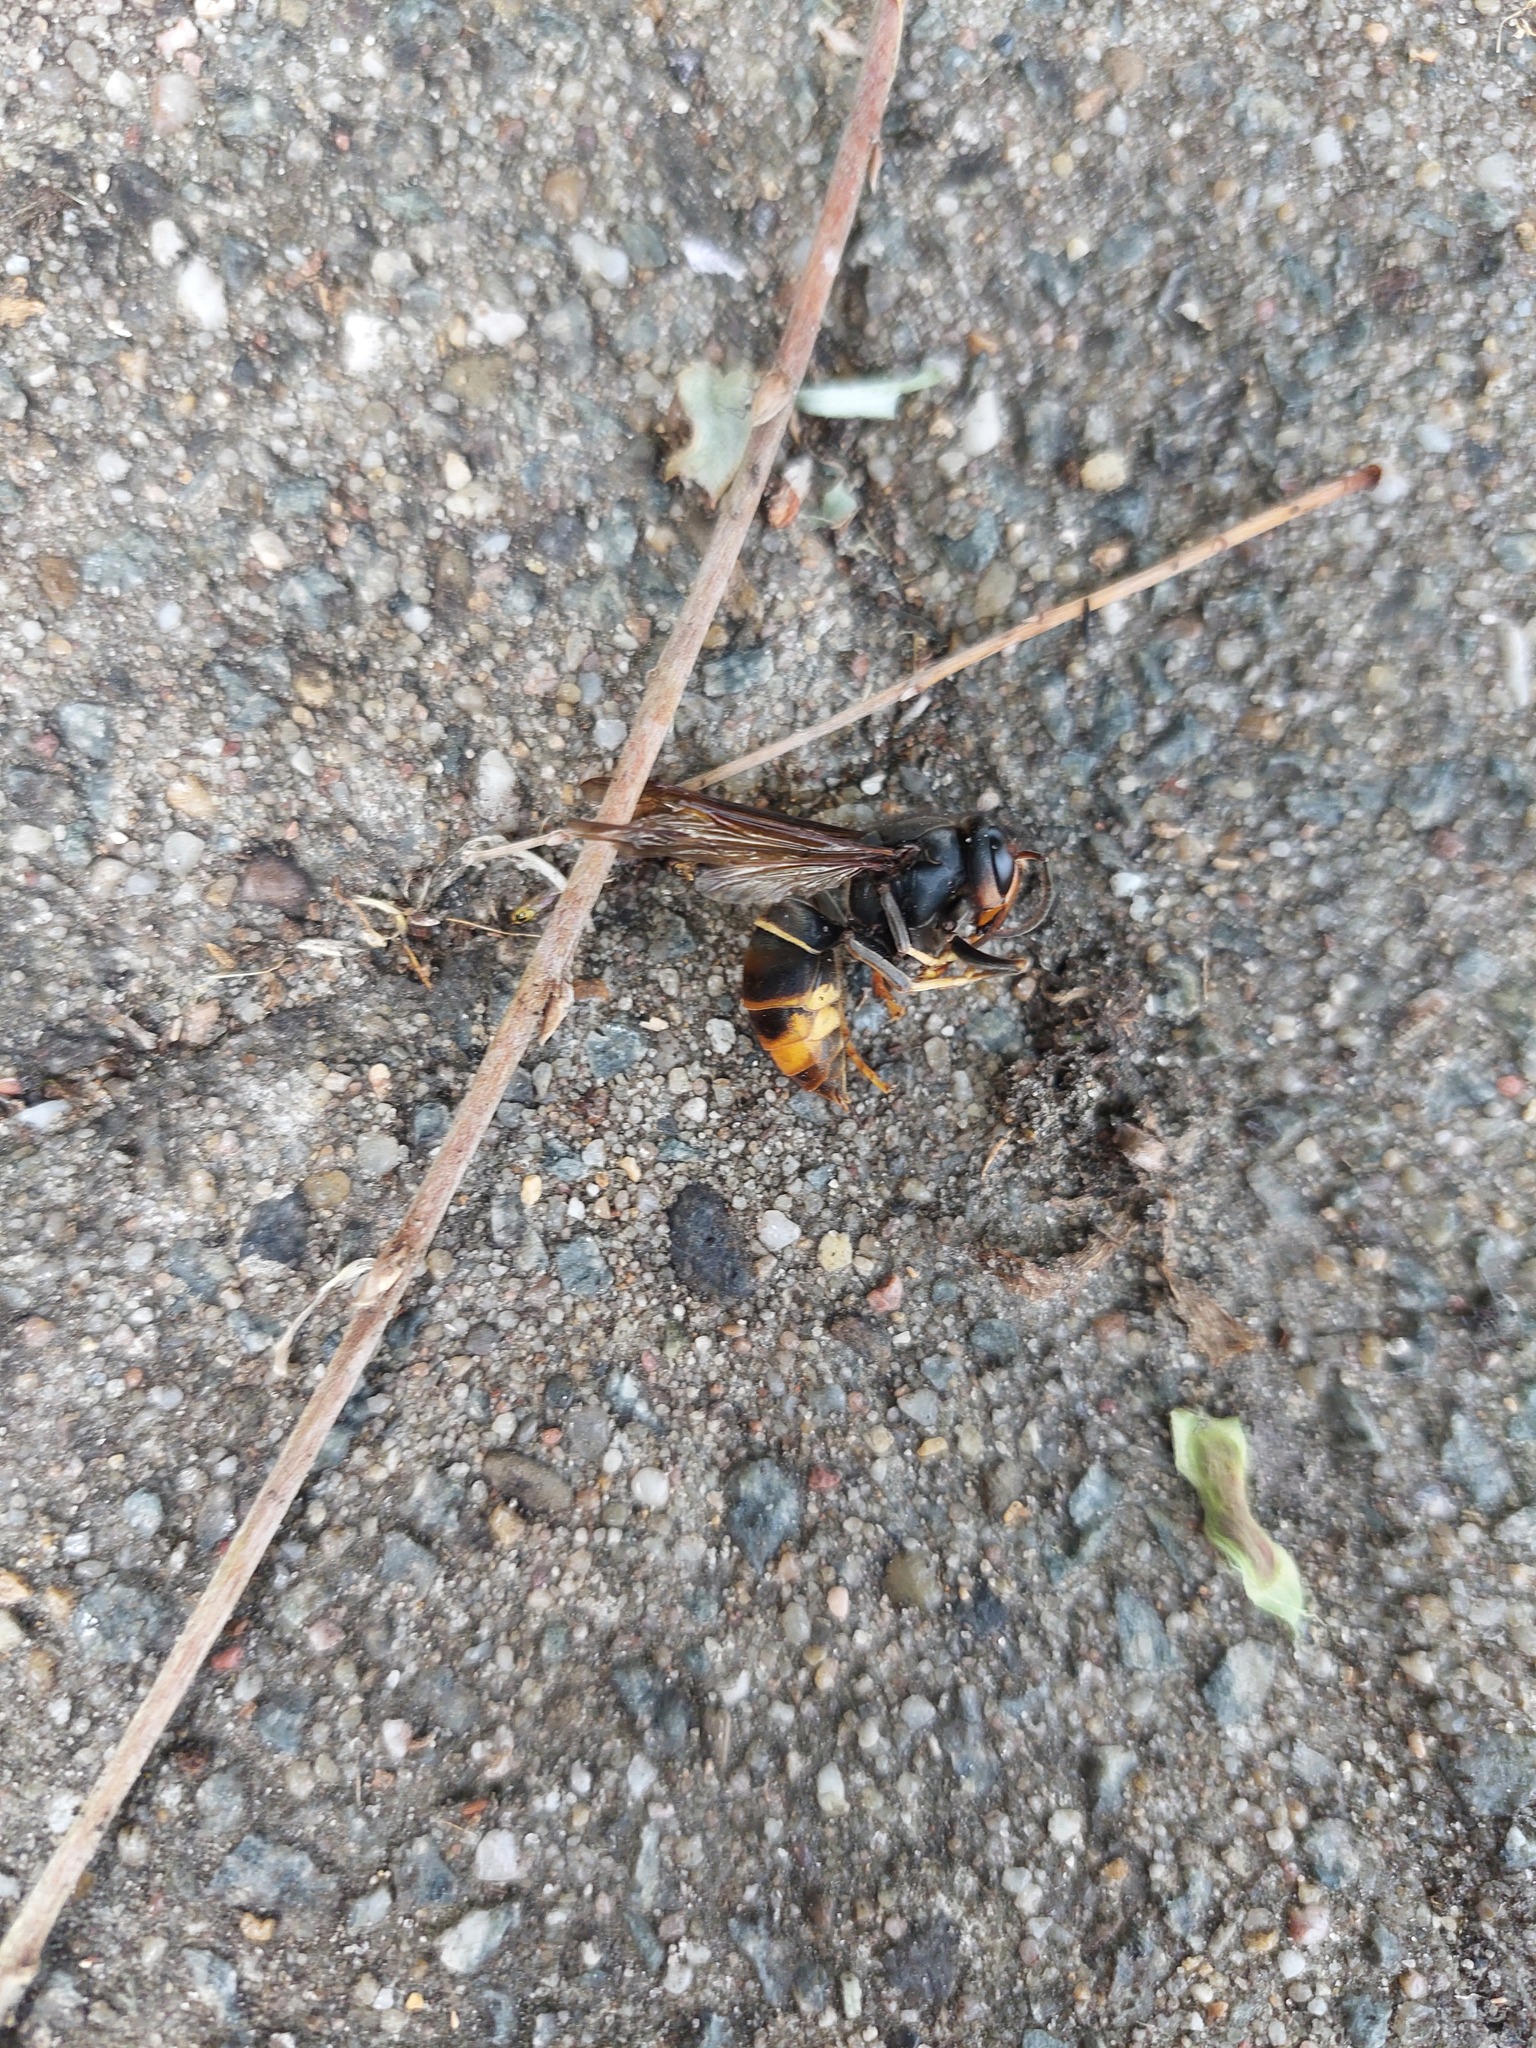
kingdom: Animalia
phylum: Arthropoda
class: Insecta
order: Hymenoptera
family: Vespidae
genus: Vespa
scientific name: Vespa velutina
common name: Asian hornet
